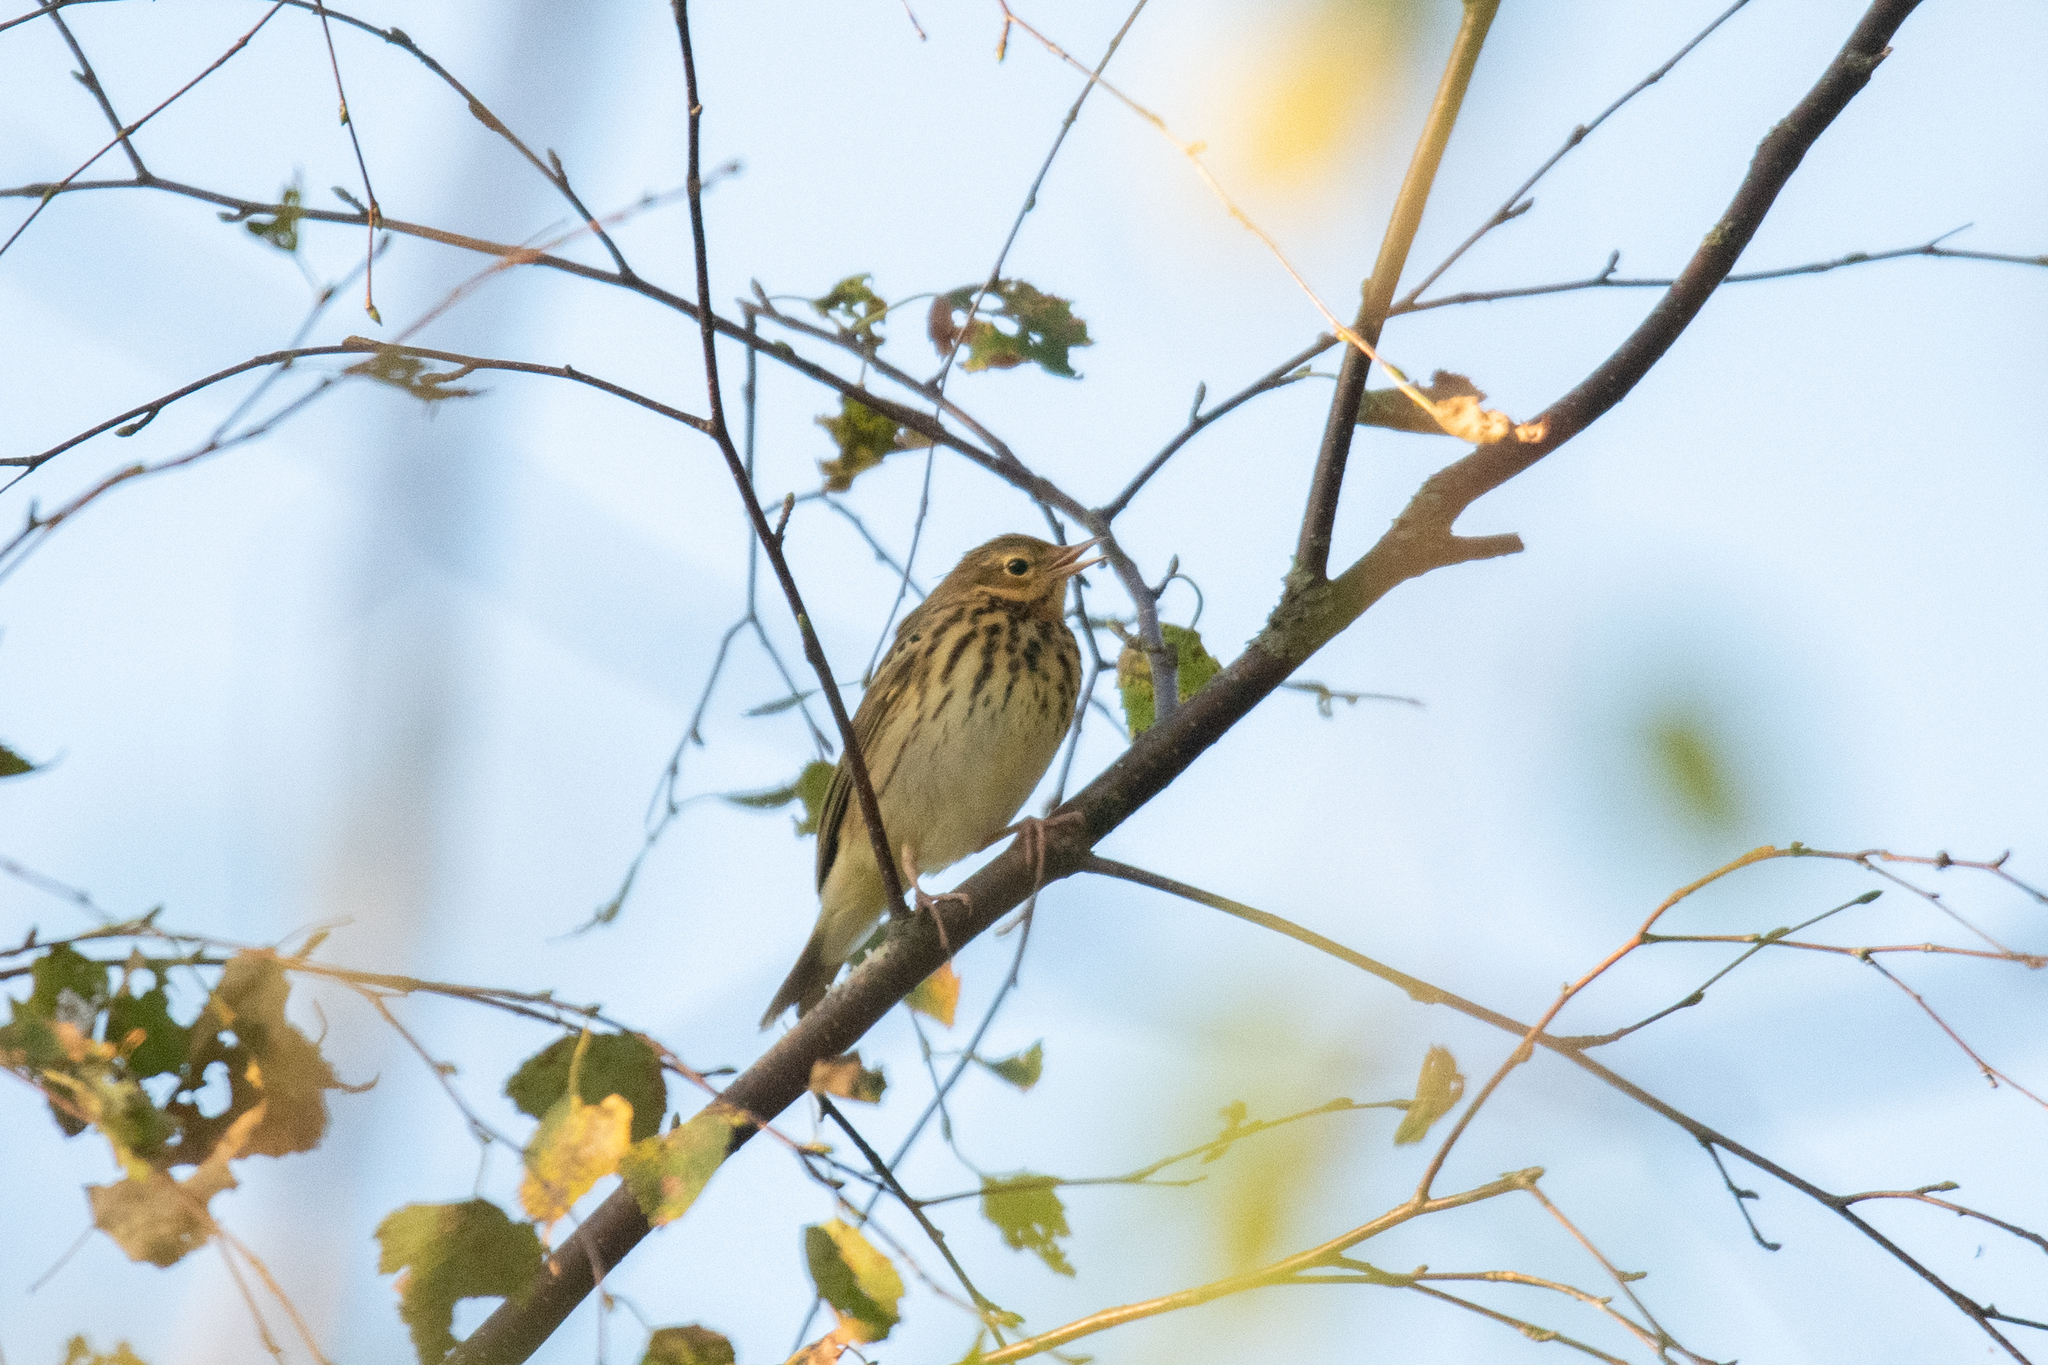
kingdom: Animalia
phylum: Chordata
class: Aves
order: Passeriformes
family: Motacillidae
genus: Anthus
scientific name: Anthus trivialis
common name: Tree pipit
